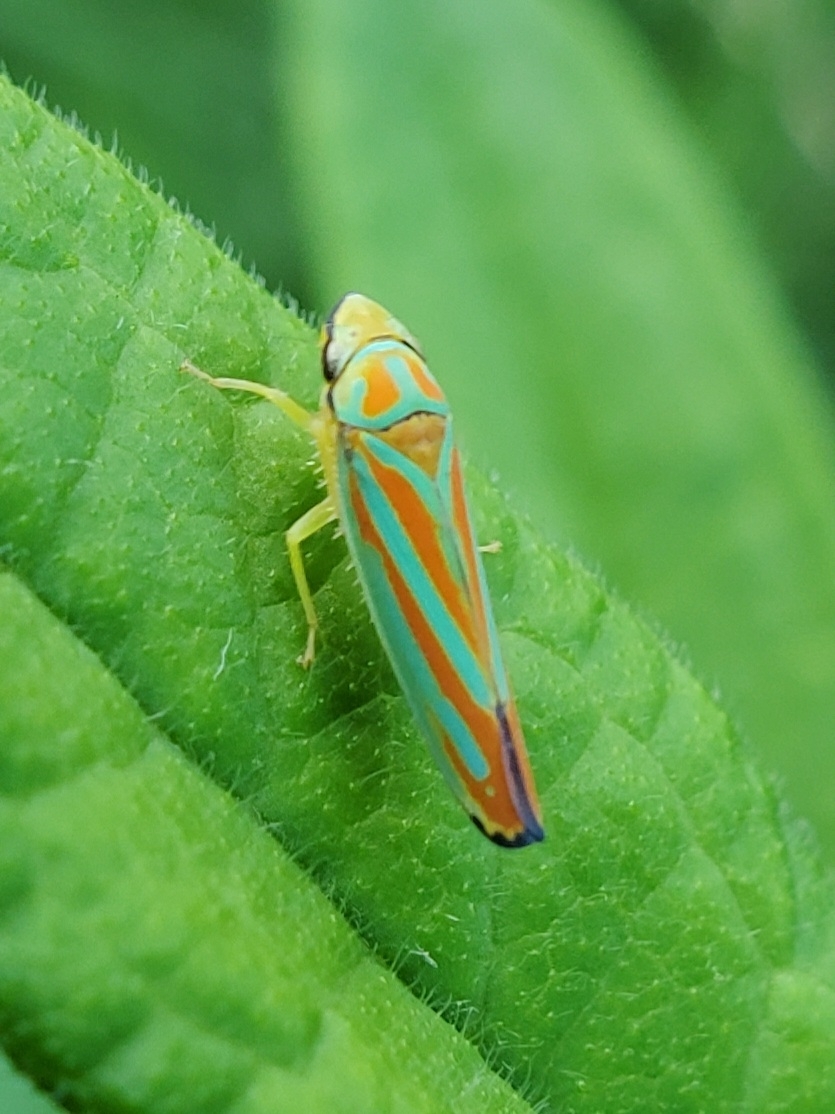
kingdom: Animalia
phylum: Arthropoda
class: Insecta
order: Hemiptera
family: Cicadellidae
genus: Graphocephala
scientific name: Graphocephala coccinea
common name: Candy-striped leafhopper
